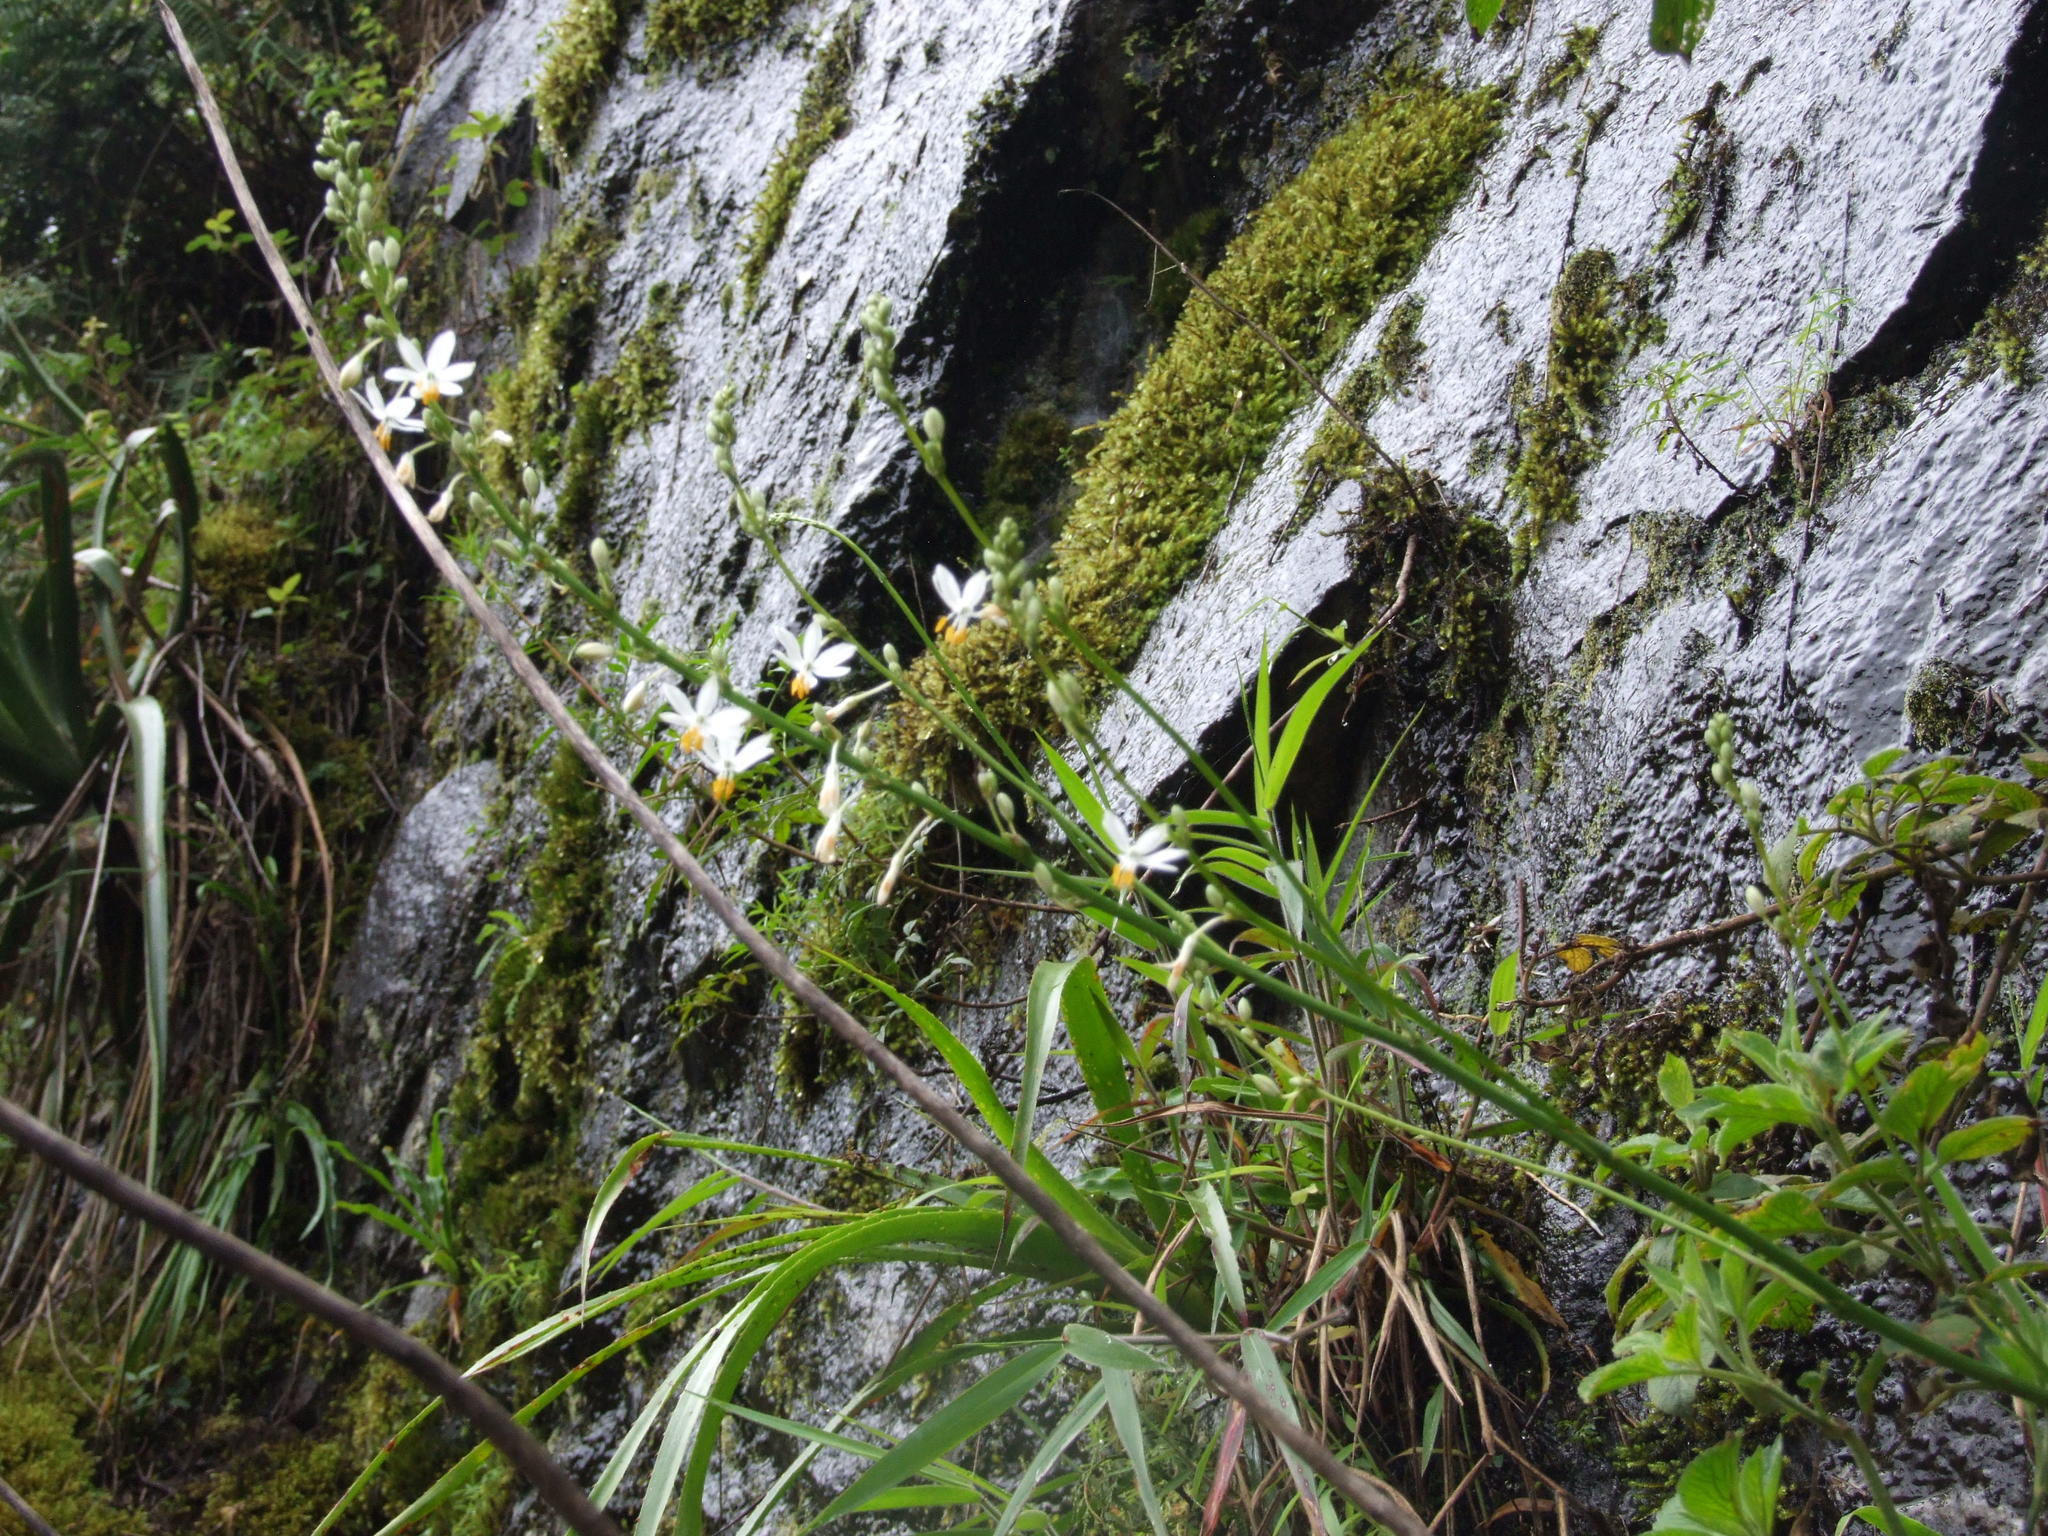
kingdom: Plantae
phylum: Tracheophyta
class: Liliopsida
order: Asparagales
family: Asparagaceae
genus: Trihesperus
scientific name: Trihesperus glaucus
